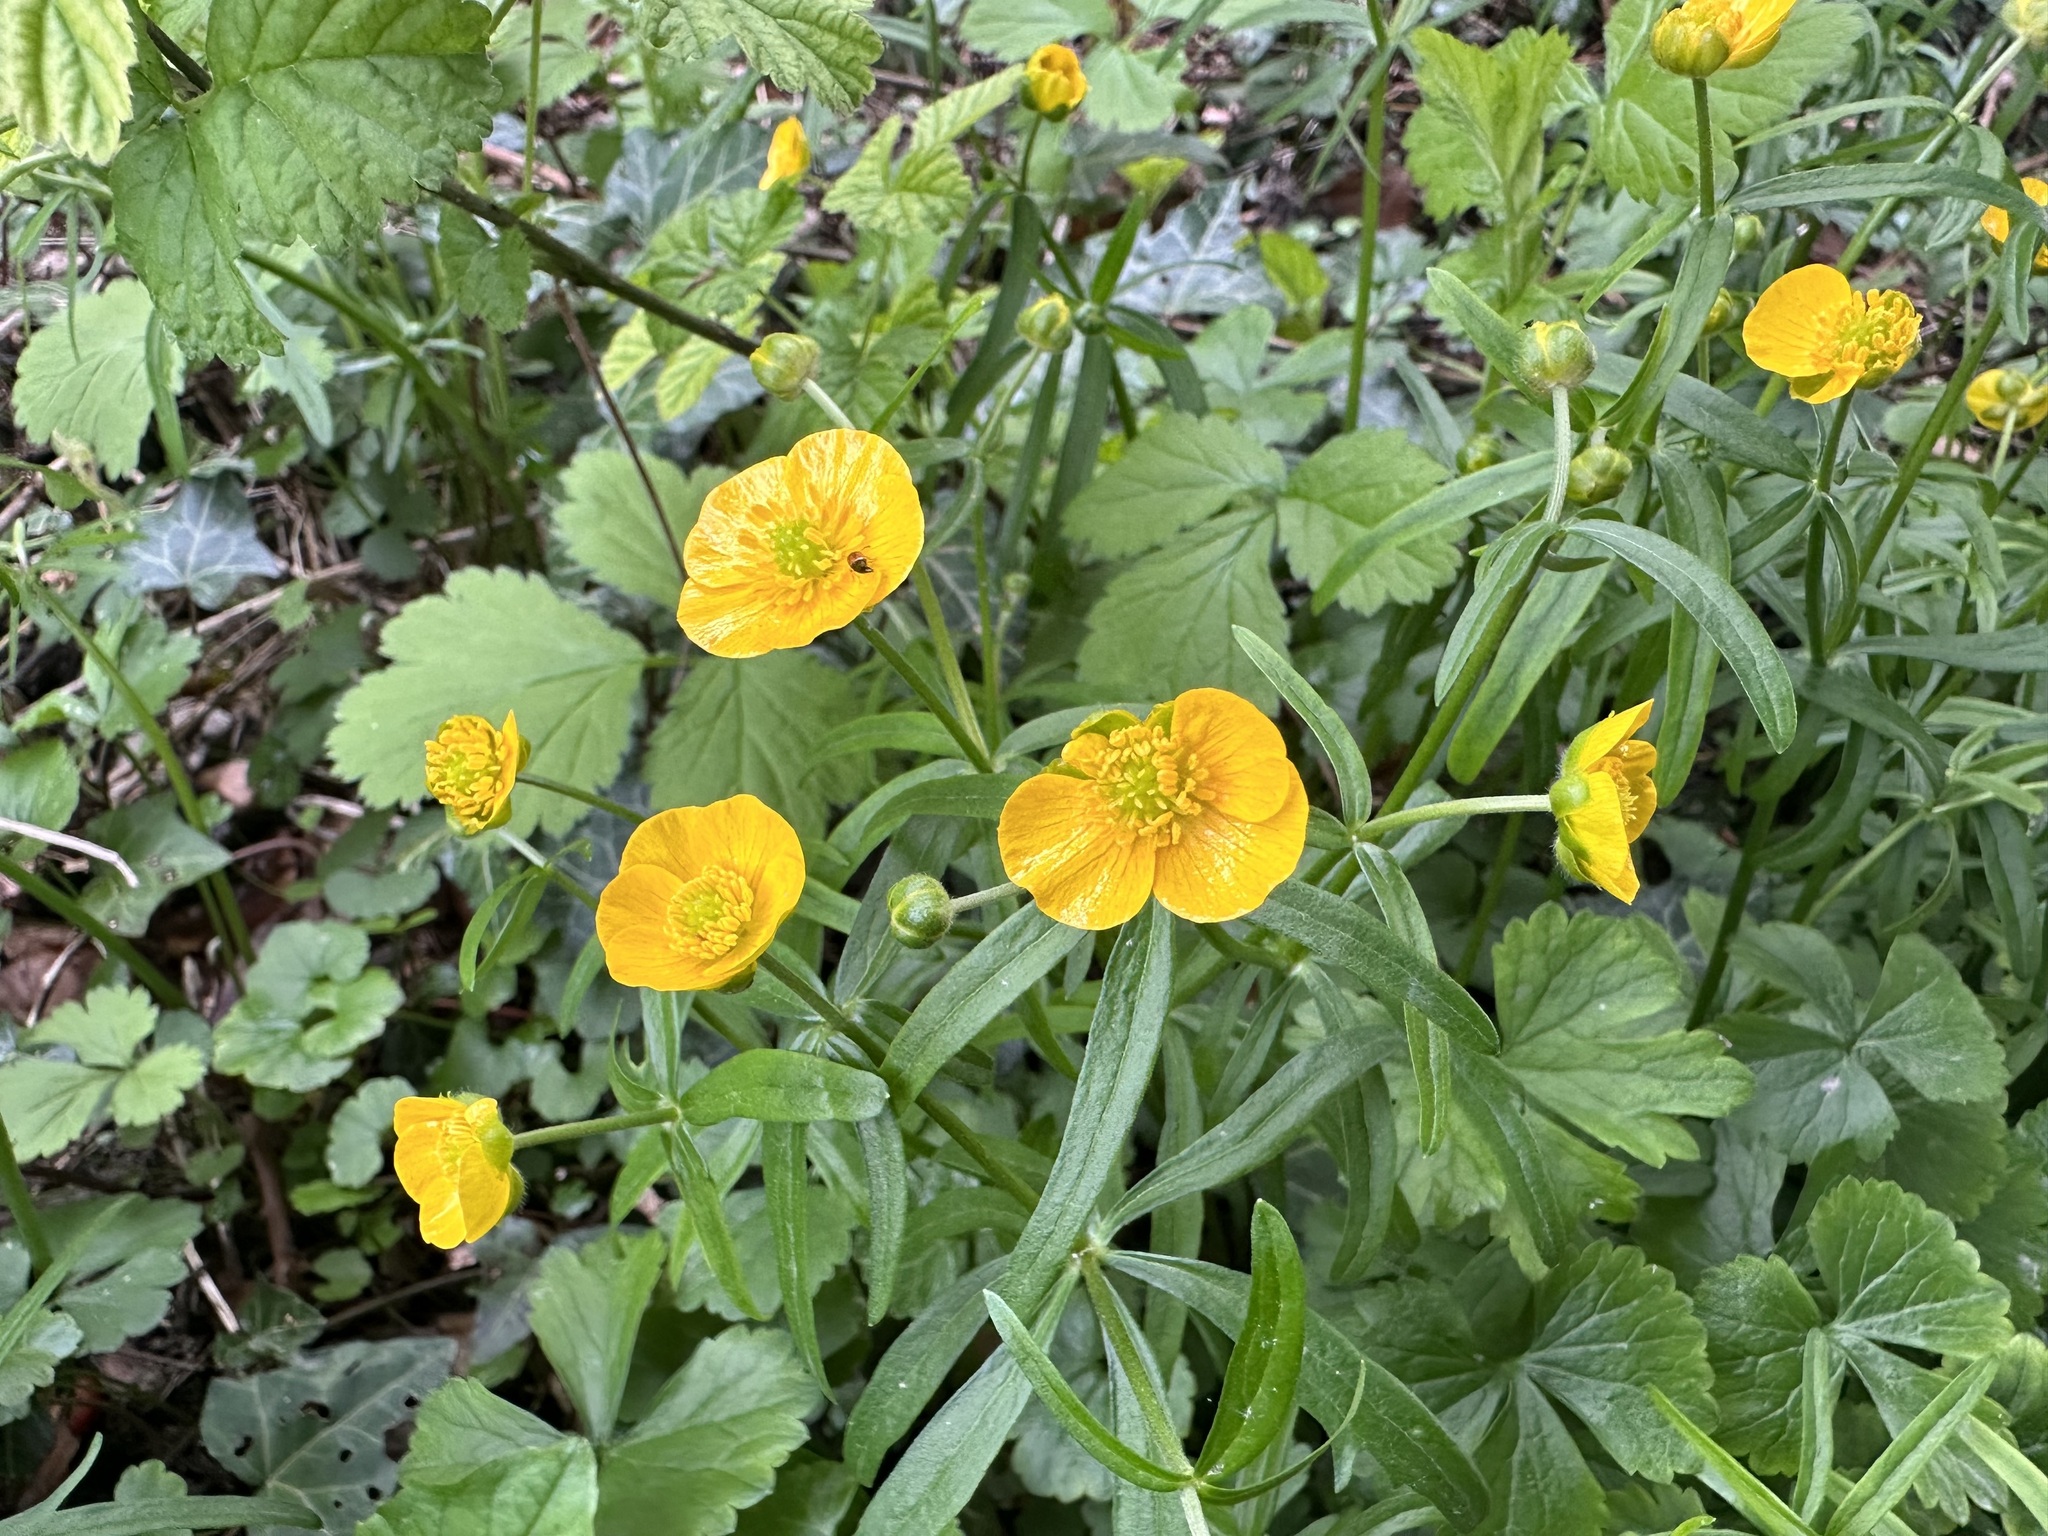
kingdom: Plantae
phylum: Tracheophyta
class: Magnoliopsida
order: Ranunculales
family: Ranunculaceae
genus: Ranunculus
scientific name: Ranunculus auricomus
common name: Goldilocks buttercup
